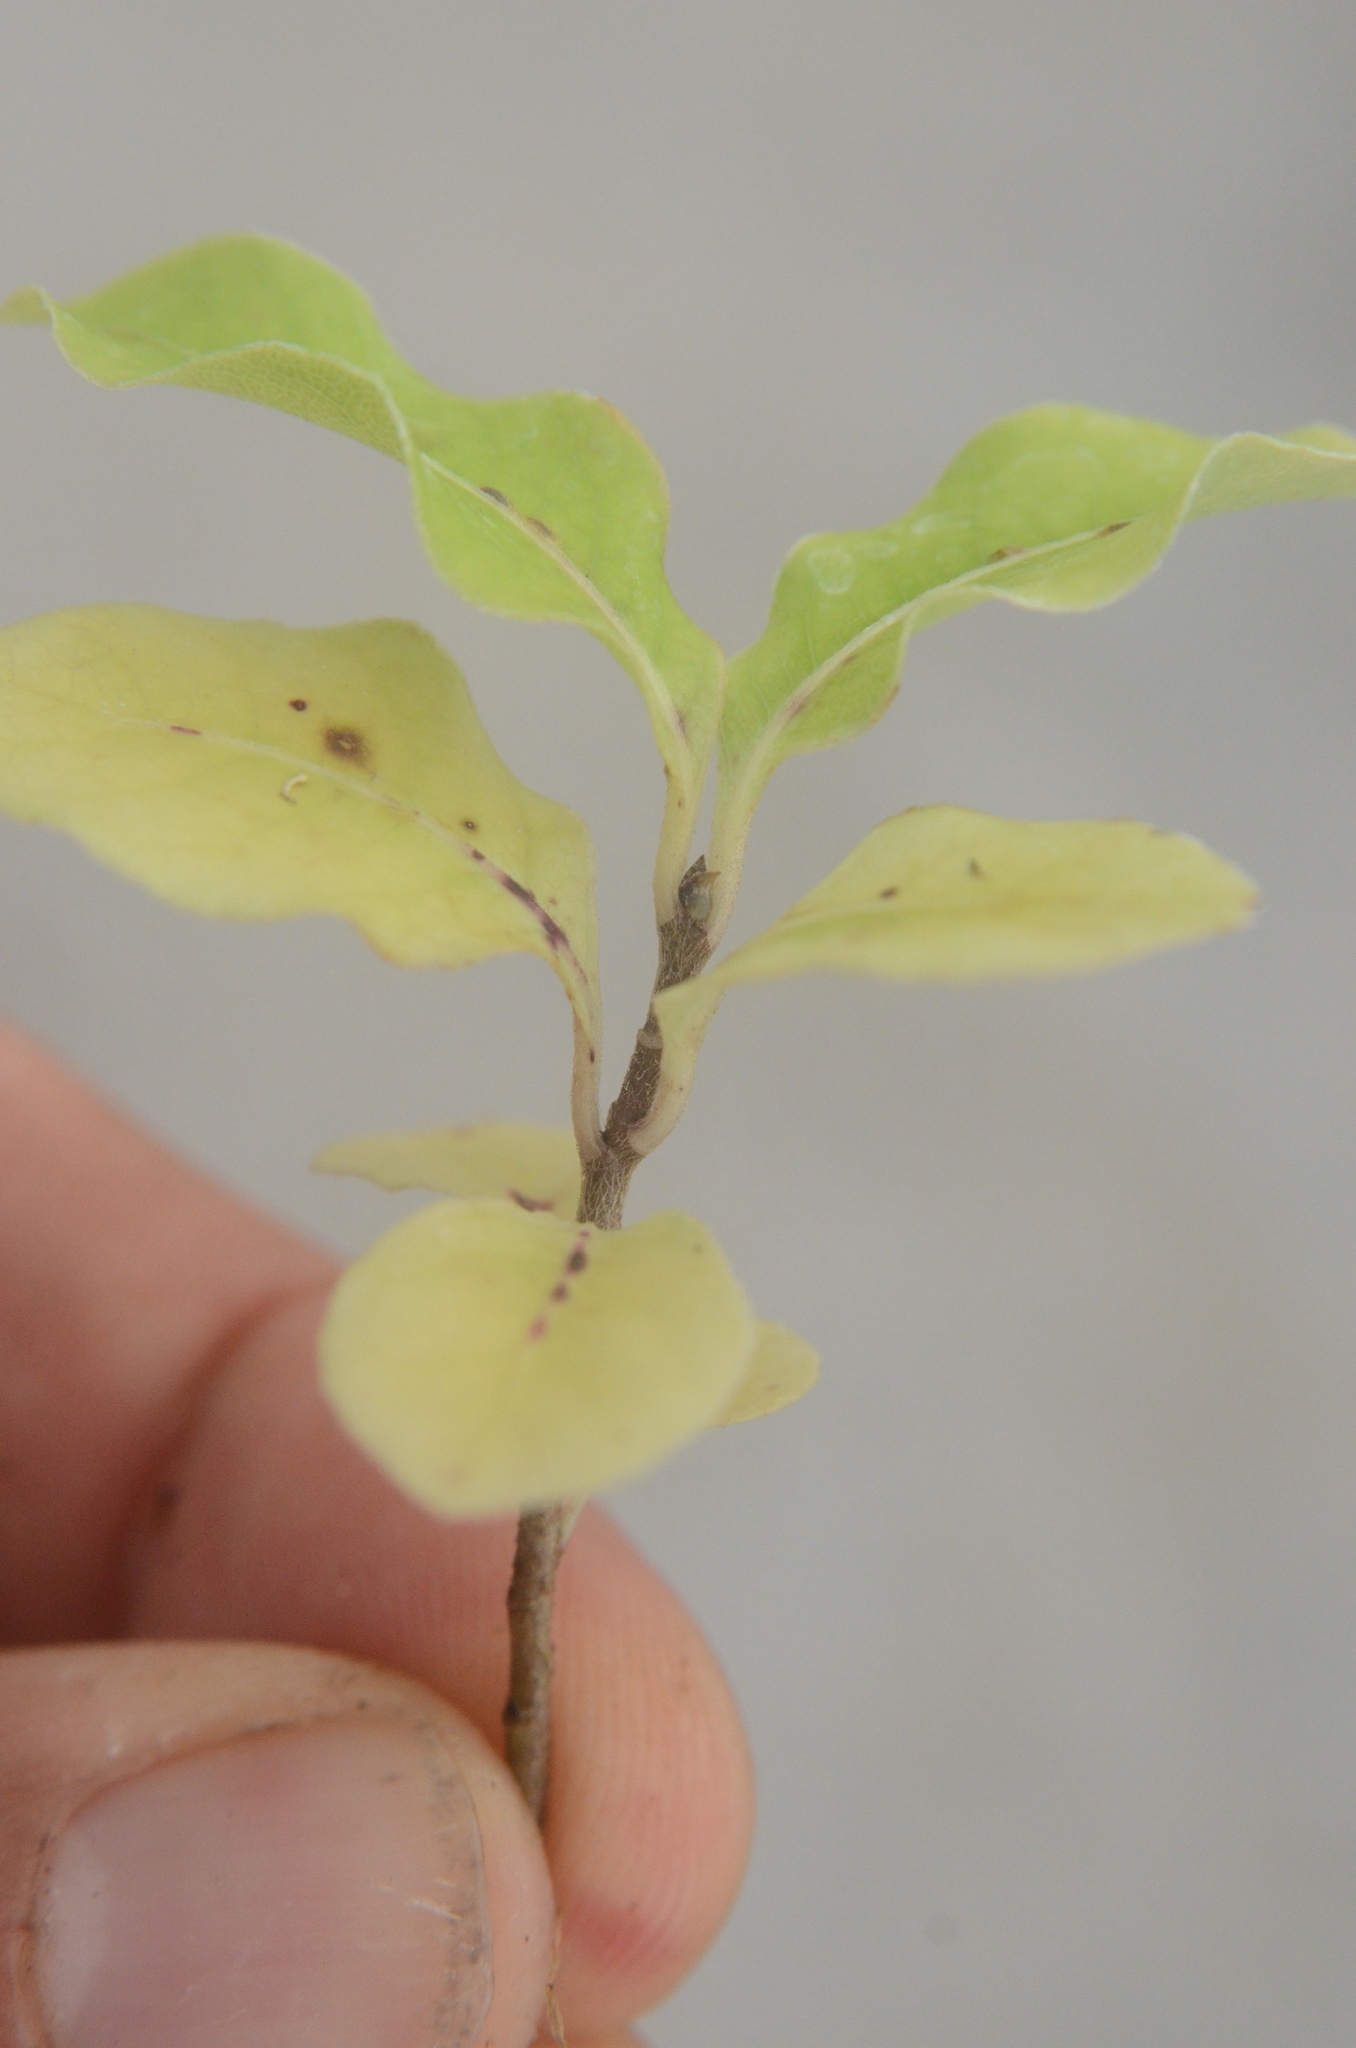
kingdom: Plantae
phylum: Tracheophyta
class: Magnoliopsida
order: Apiales
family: Pittosporaceae
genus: Pittosporum
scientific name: Pittosporum eugenioides
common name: Lemonwood
